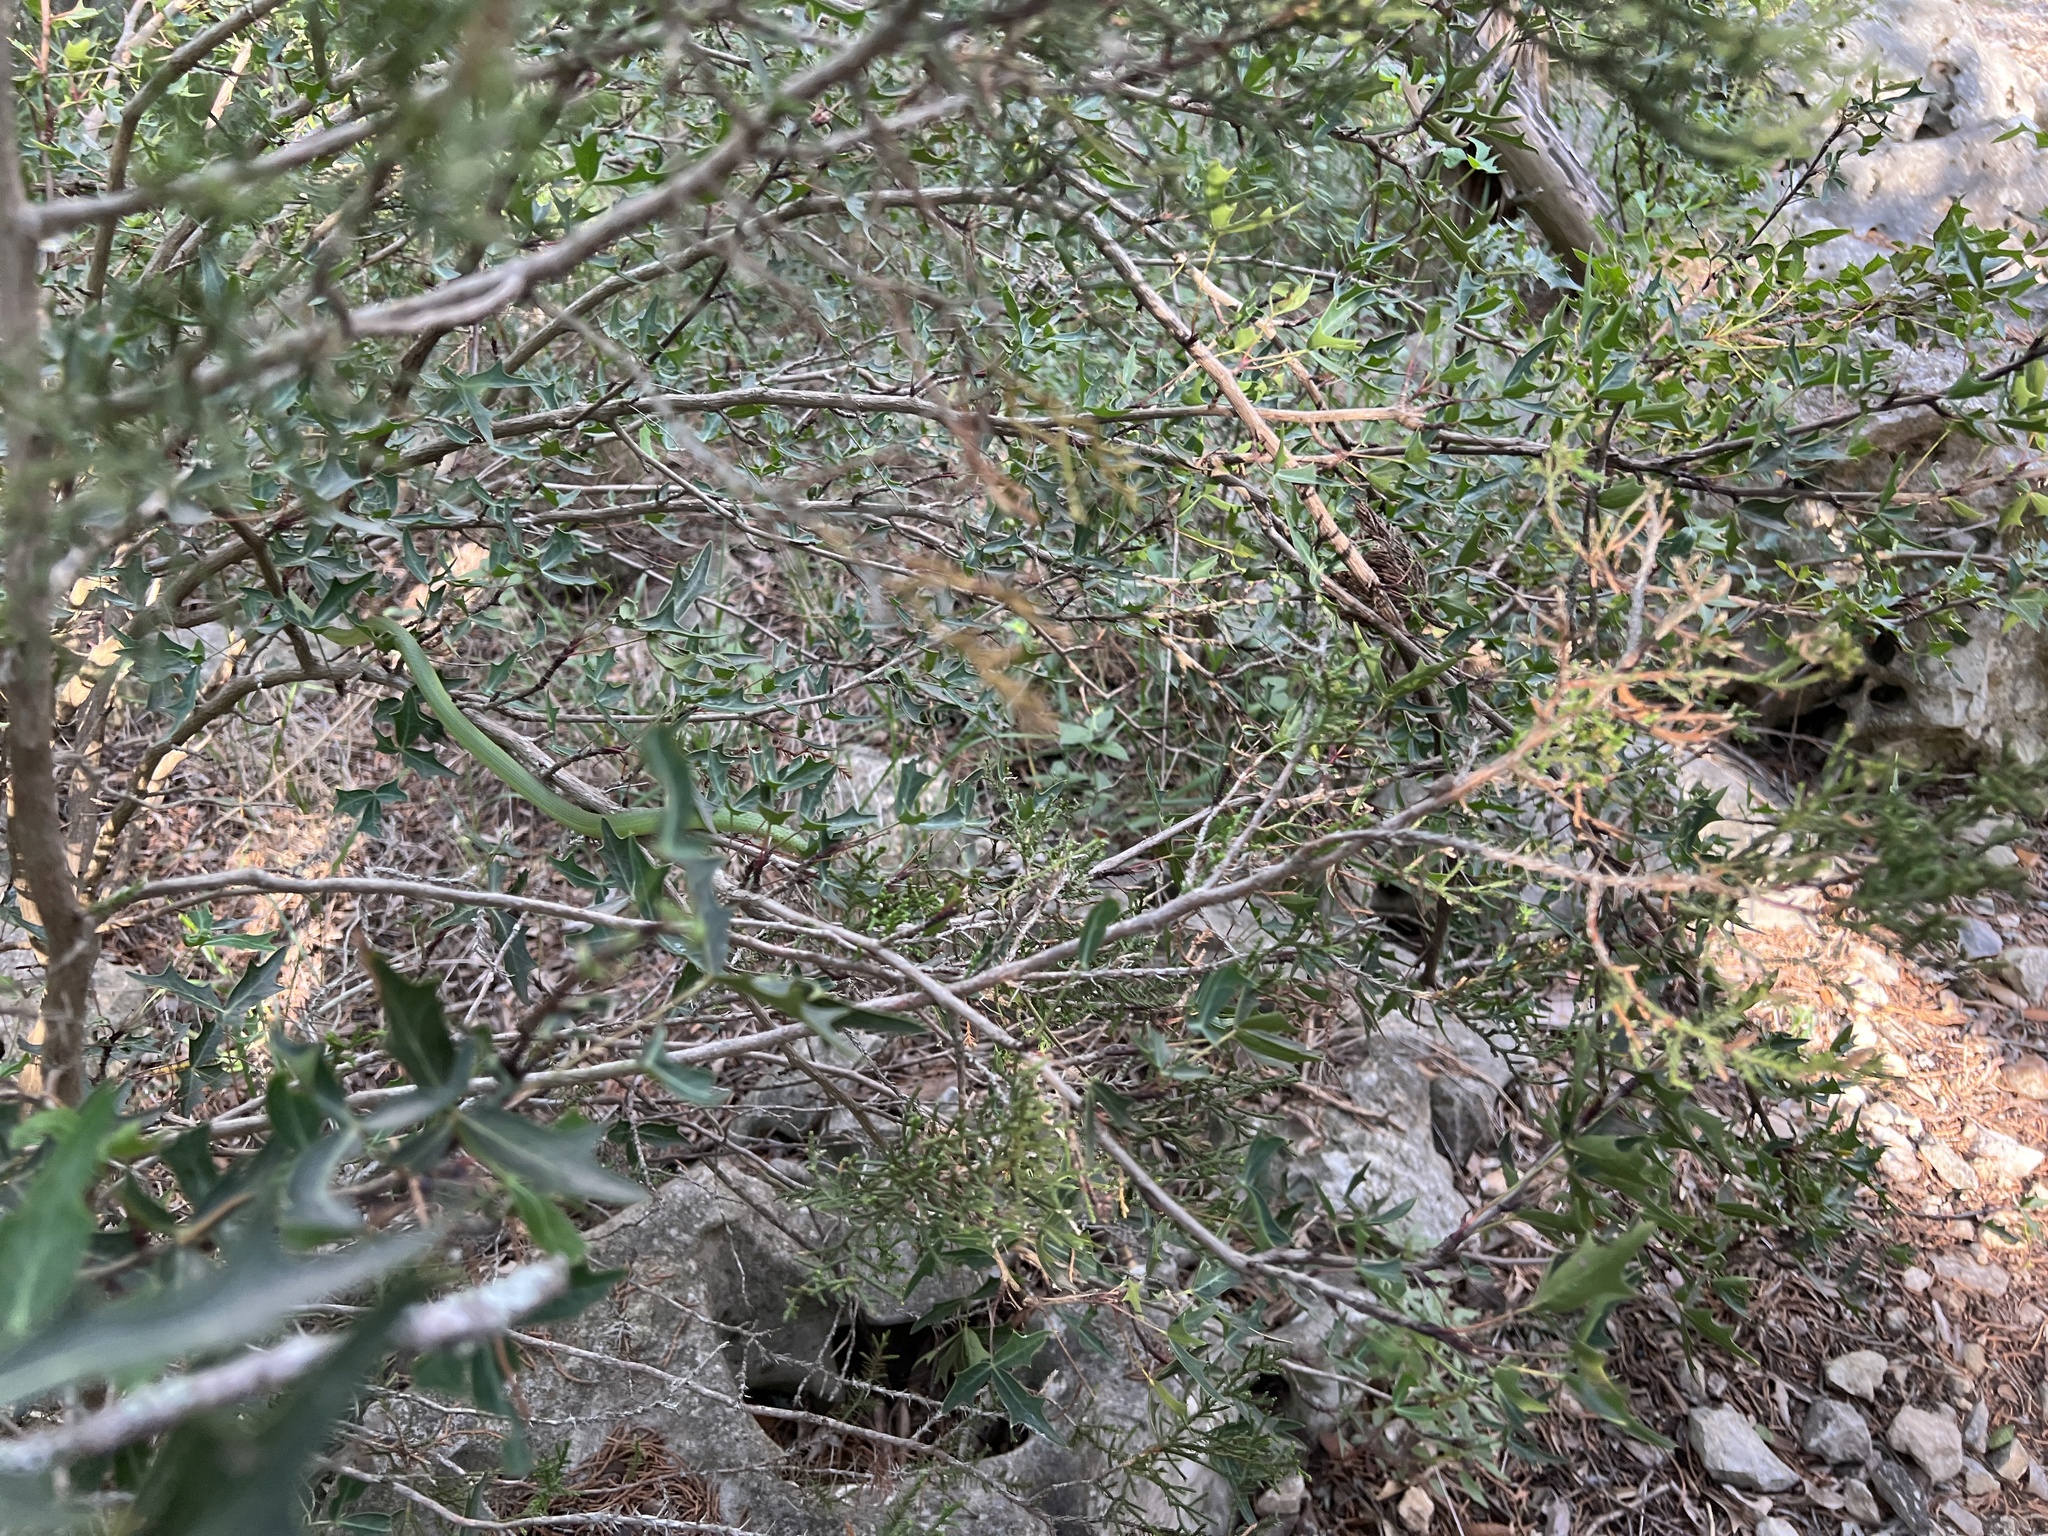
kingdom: Animalia
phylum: Chordata
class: Squamata
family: Colubridae
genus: Opheodrys
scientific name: Opheodrys aestivus
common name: Rough greensnake
